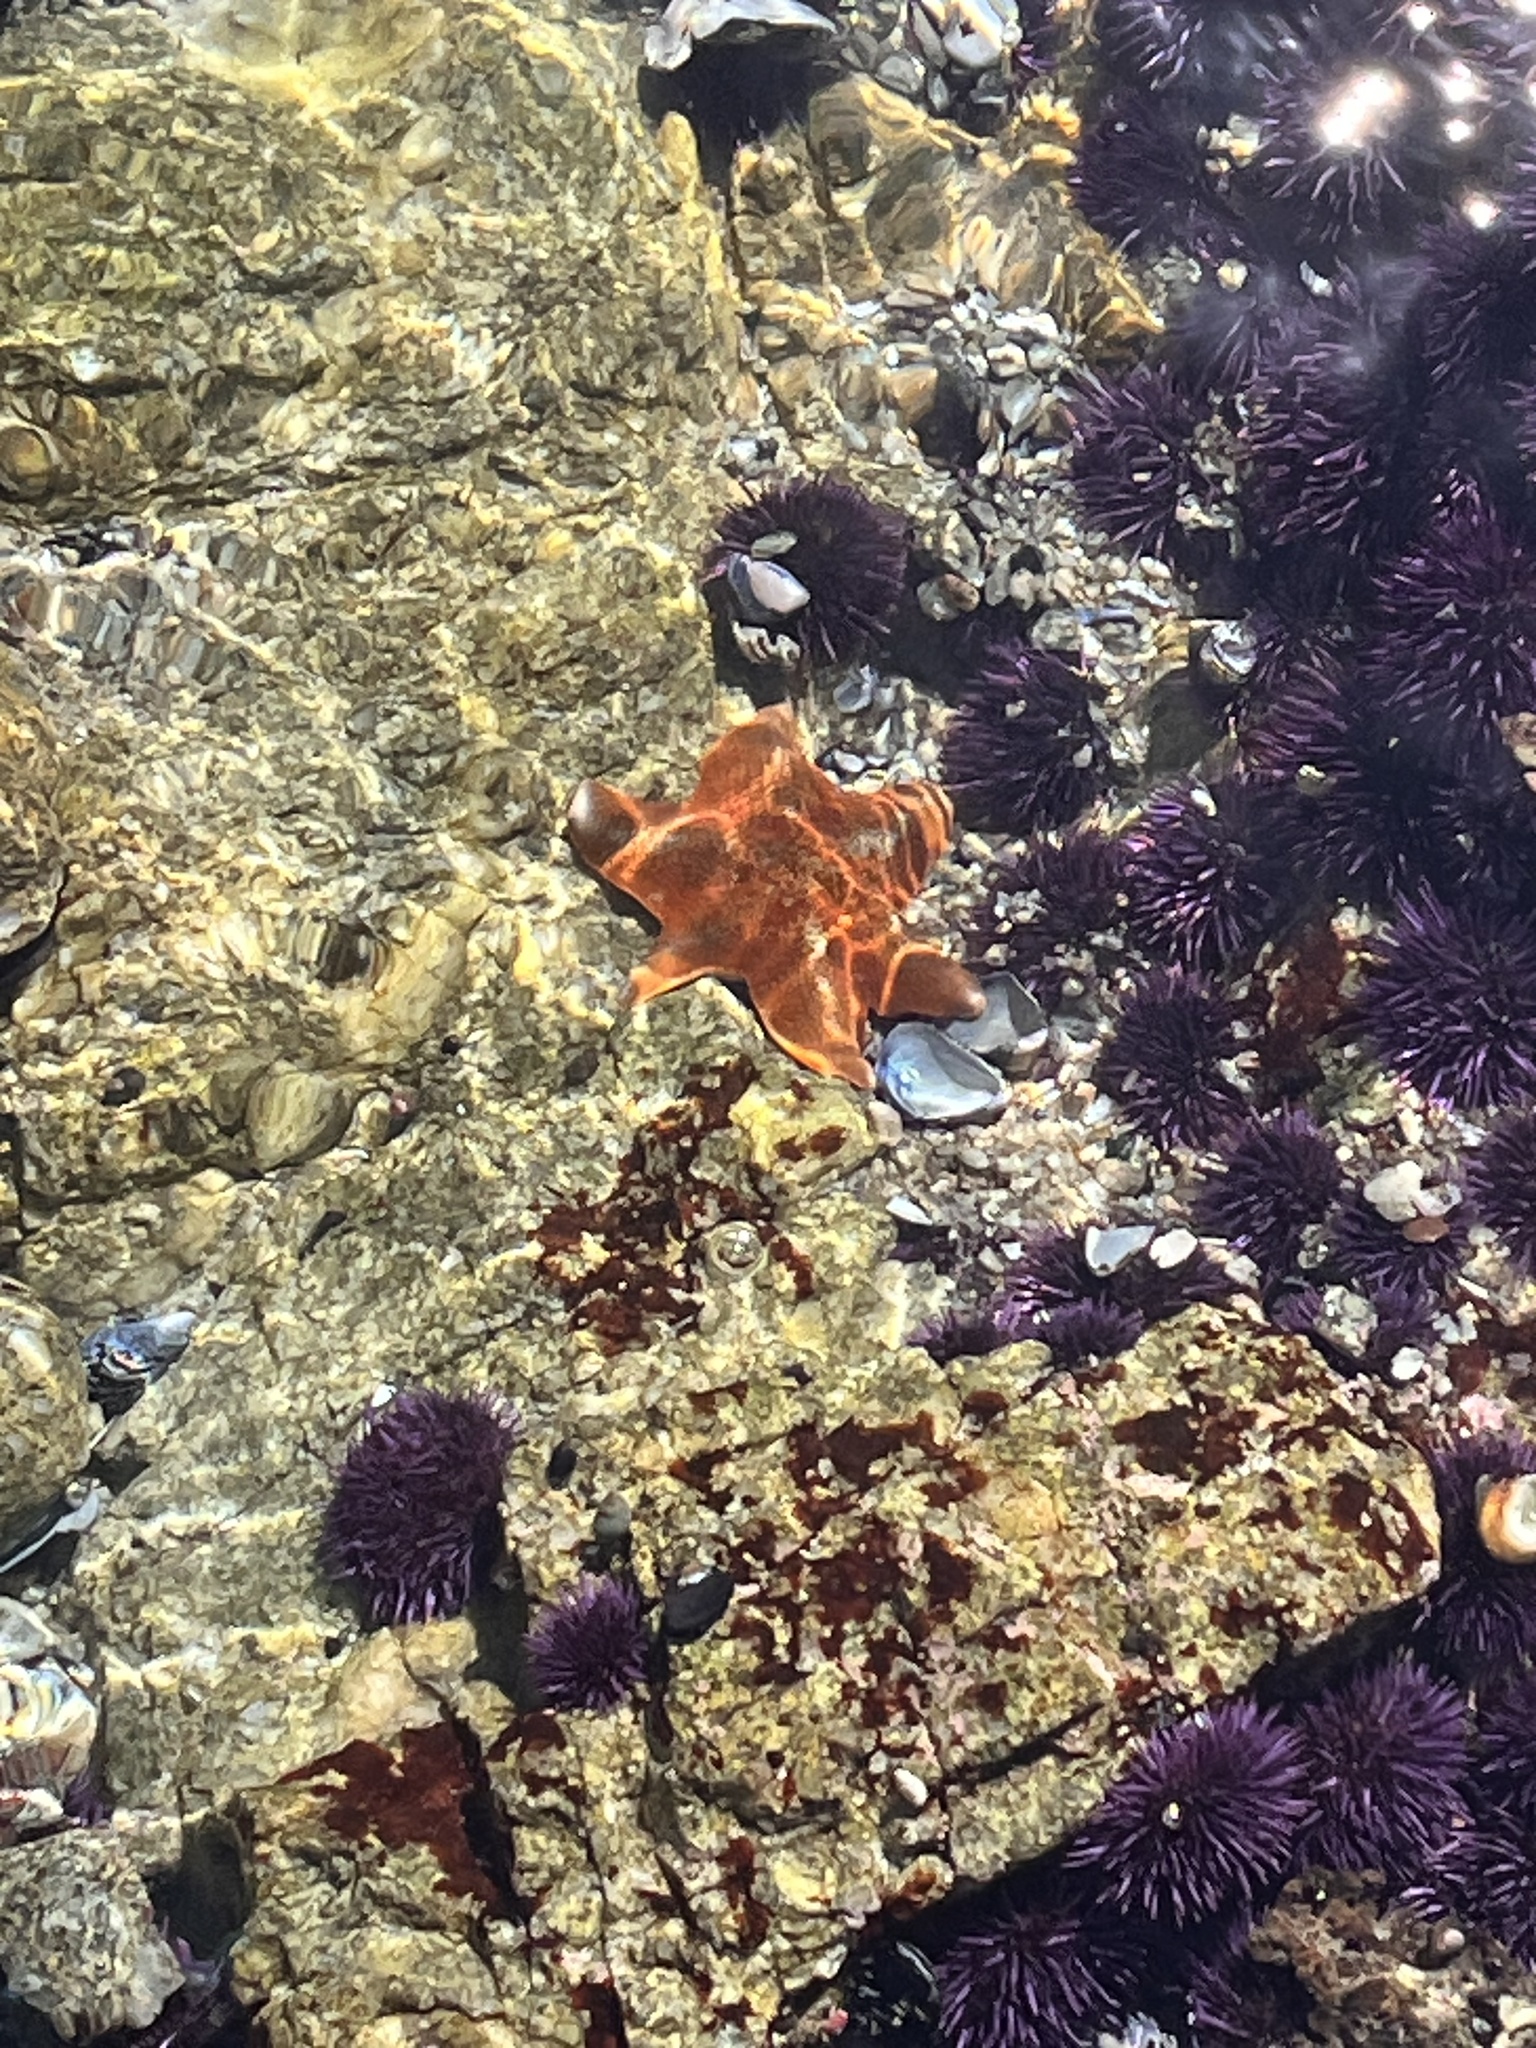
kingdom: Animalia
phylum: Echinodermata
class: Asteroidea
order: Valvatida
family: Asterinidae
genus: Patiria
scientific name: Patiria miniata
